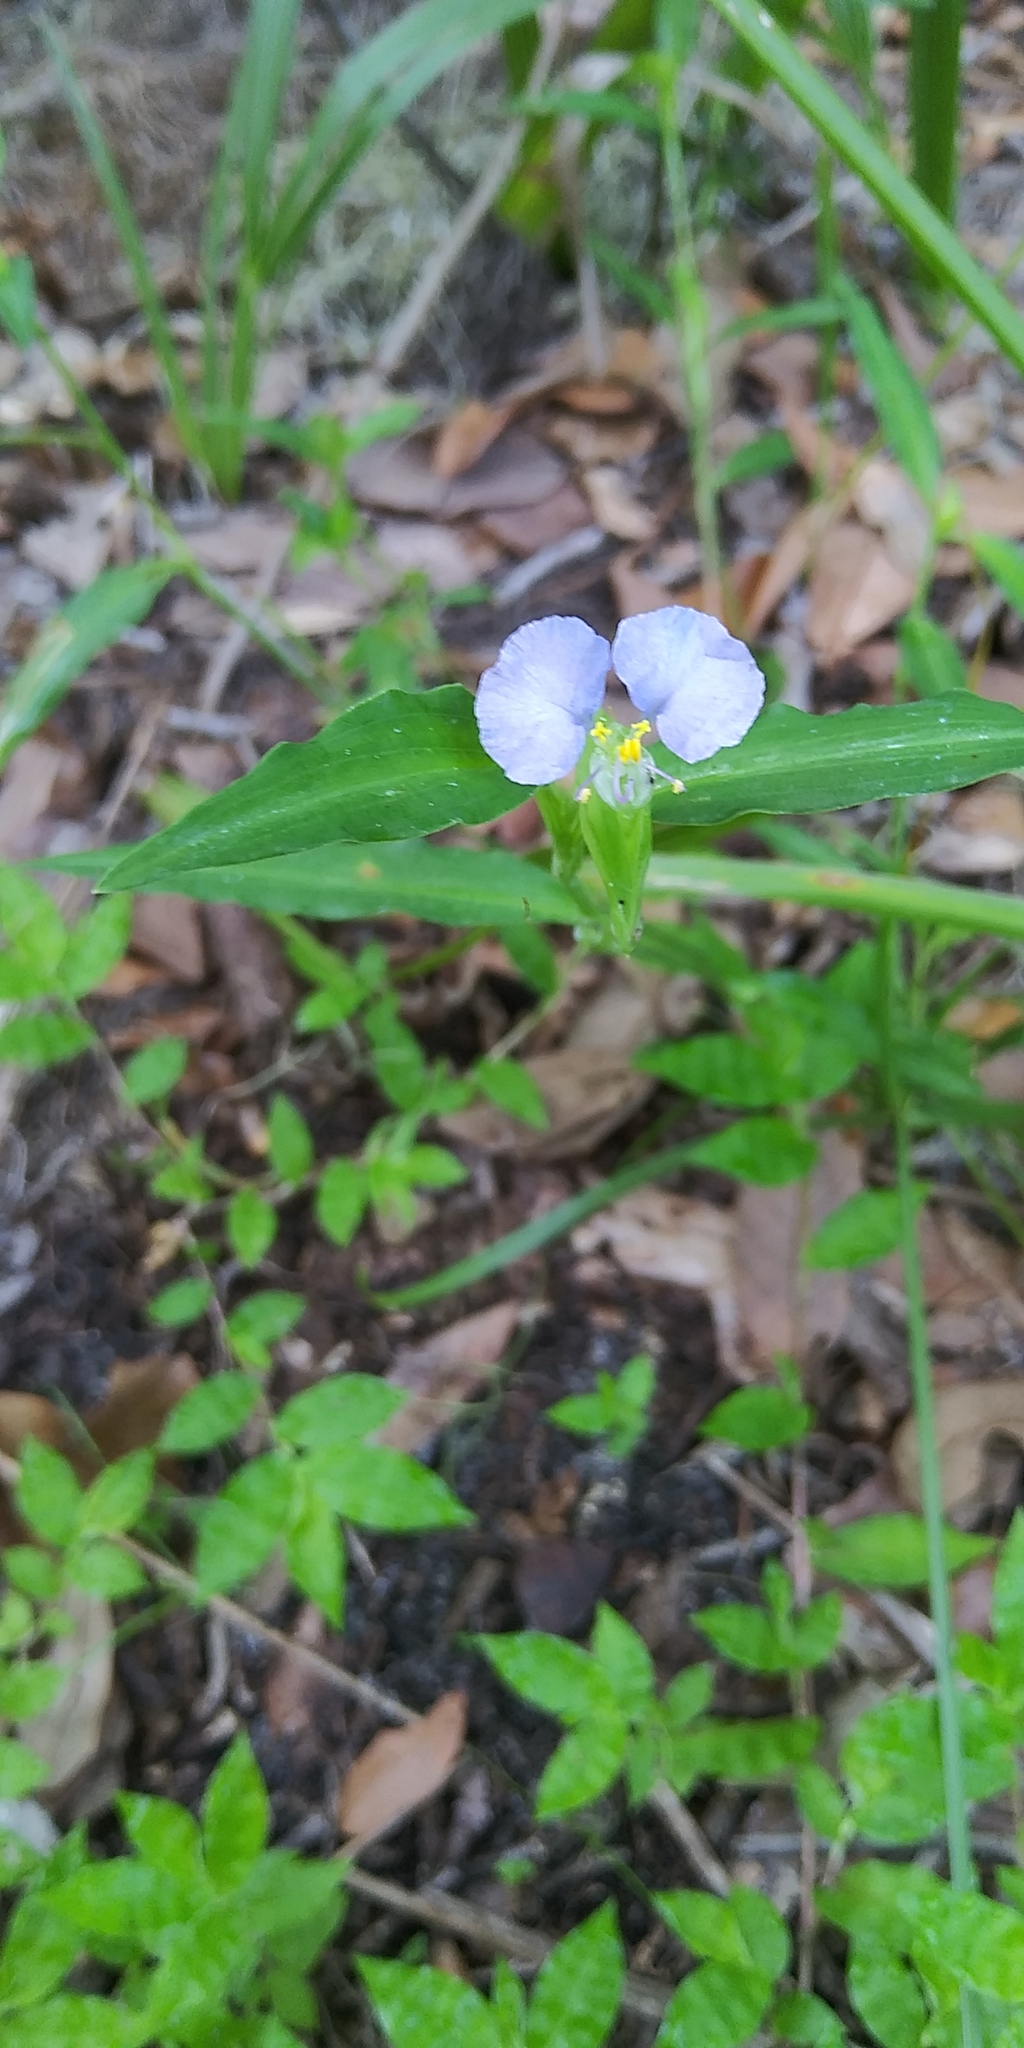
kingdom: Plantae
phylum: Tracheophyta
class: Liliopsida
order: Commelinales
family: Commelinaceae
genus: Commelina
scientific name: Commelina erecta
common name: Blousel blommetjie
